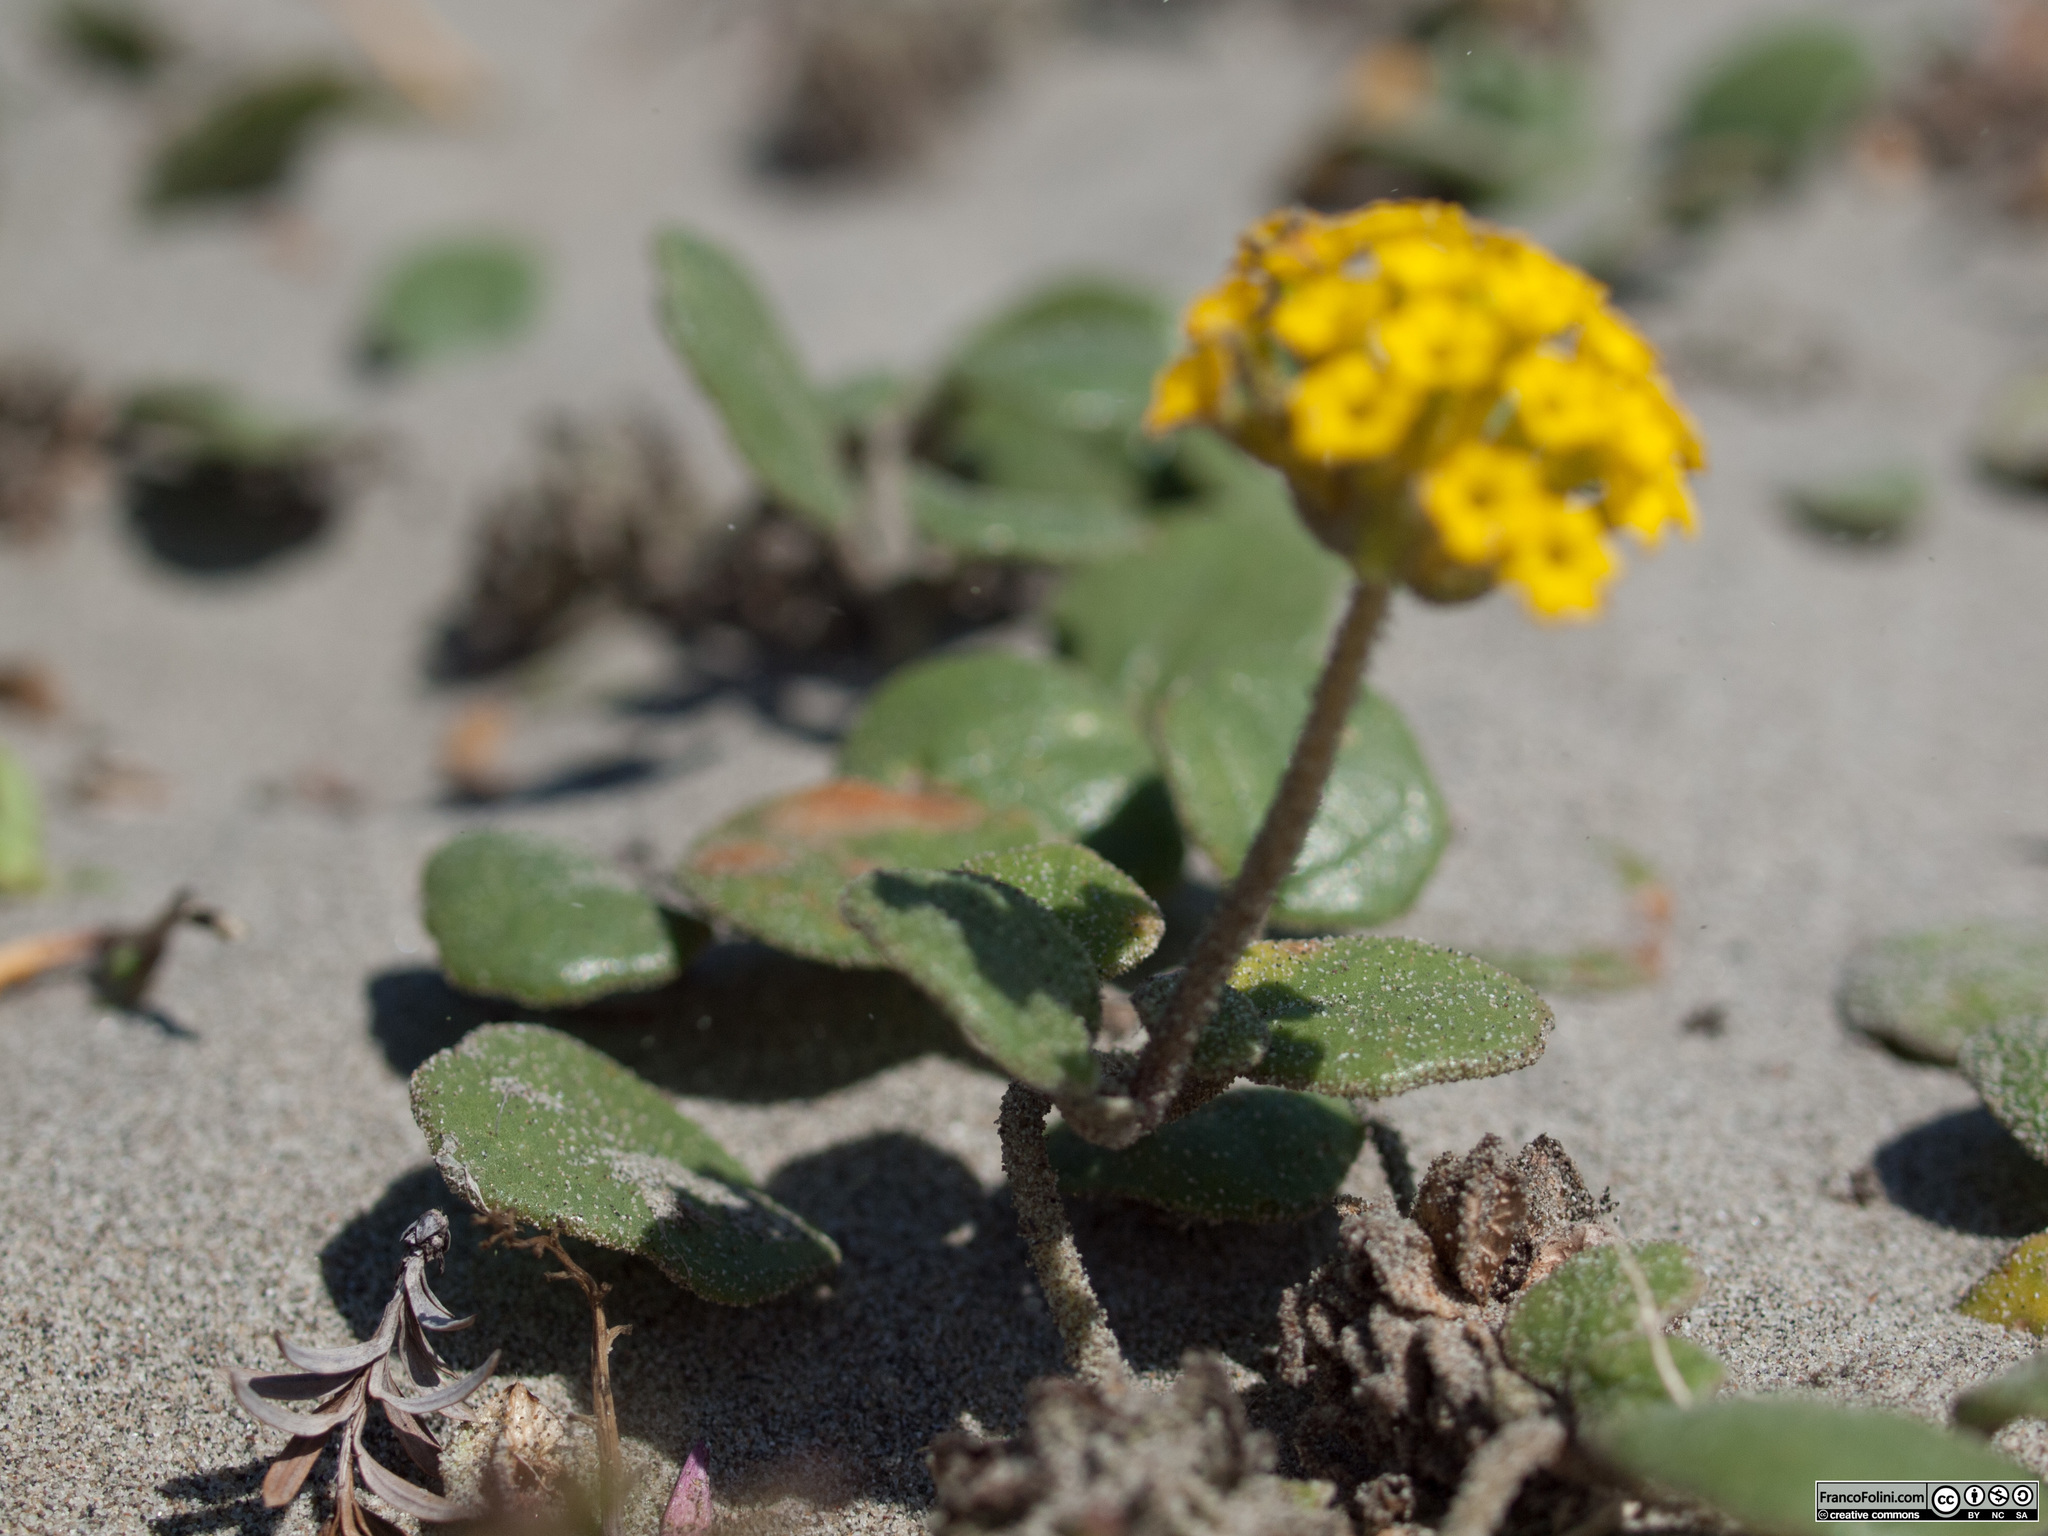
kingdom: Plantae
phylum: Tracheophyta
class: Magnoliopsida
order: Caryophyllales
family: Nyctaginaceae
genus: Abronia
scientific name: Abronia latifolia
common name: Yellow sand-verbena
